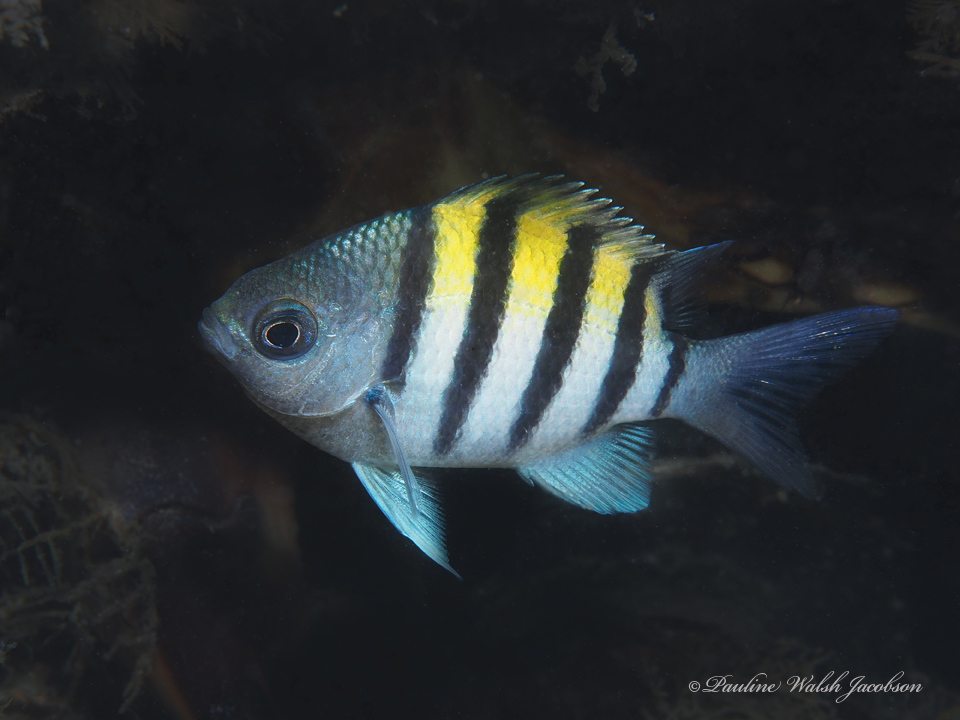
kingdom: Animalia
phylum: Chordata
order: Perciformes
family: Pomacentridae
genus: Abudefduf
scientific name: Abudefduf saxatilis
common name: Sergeant major
